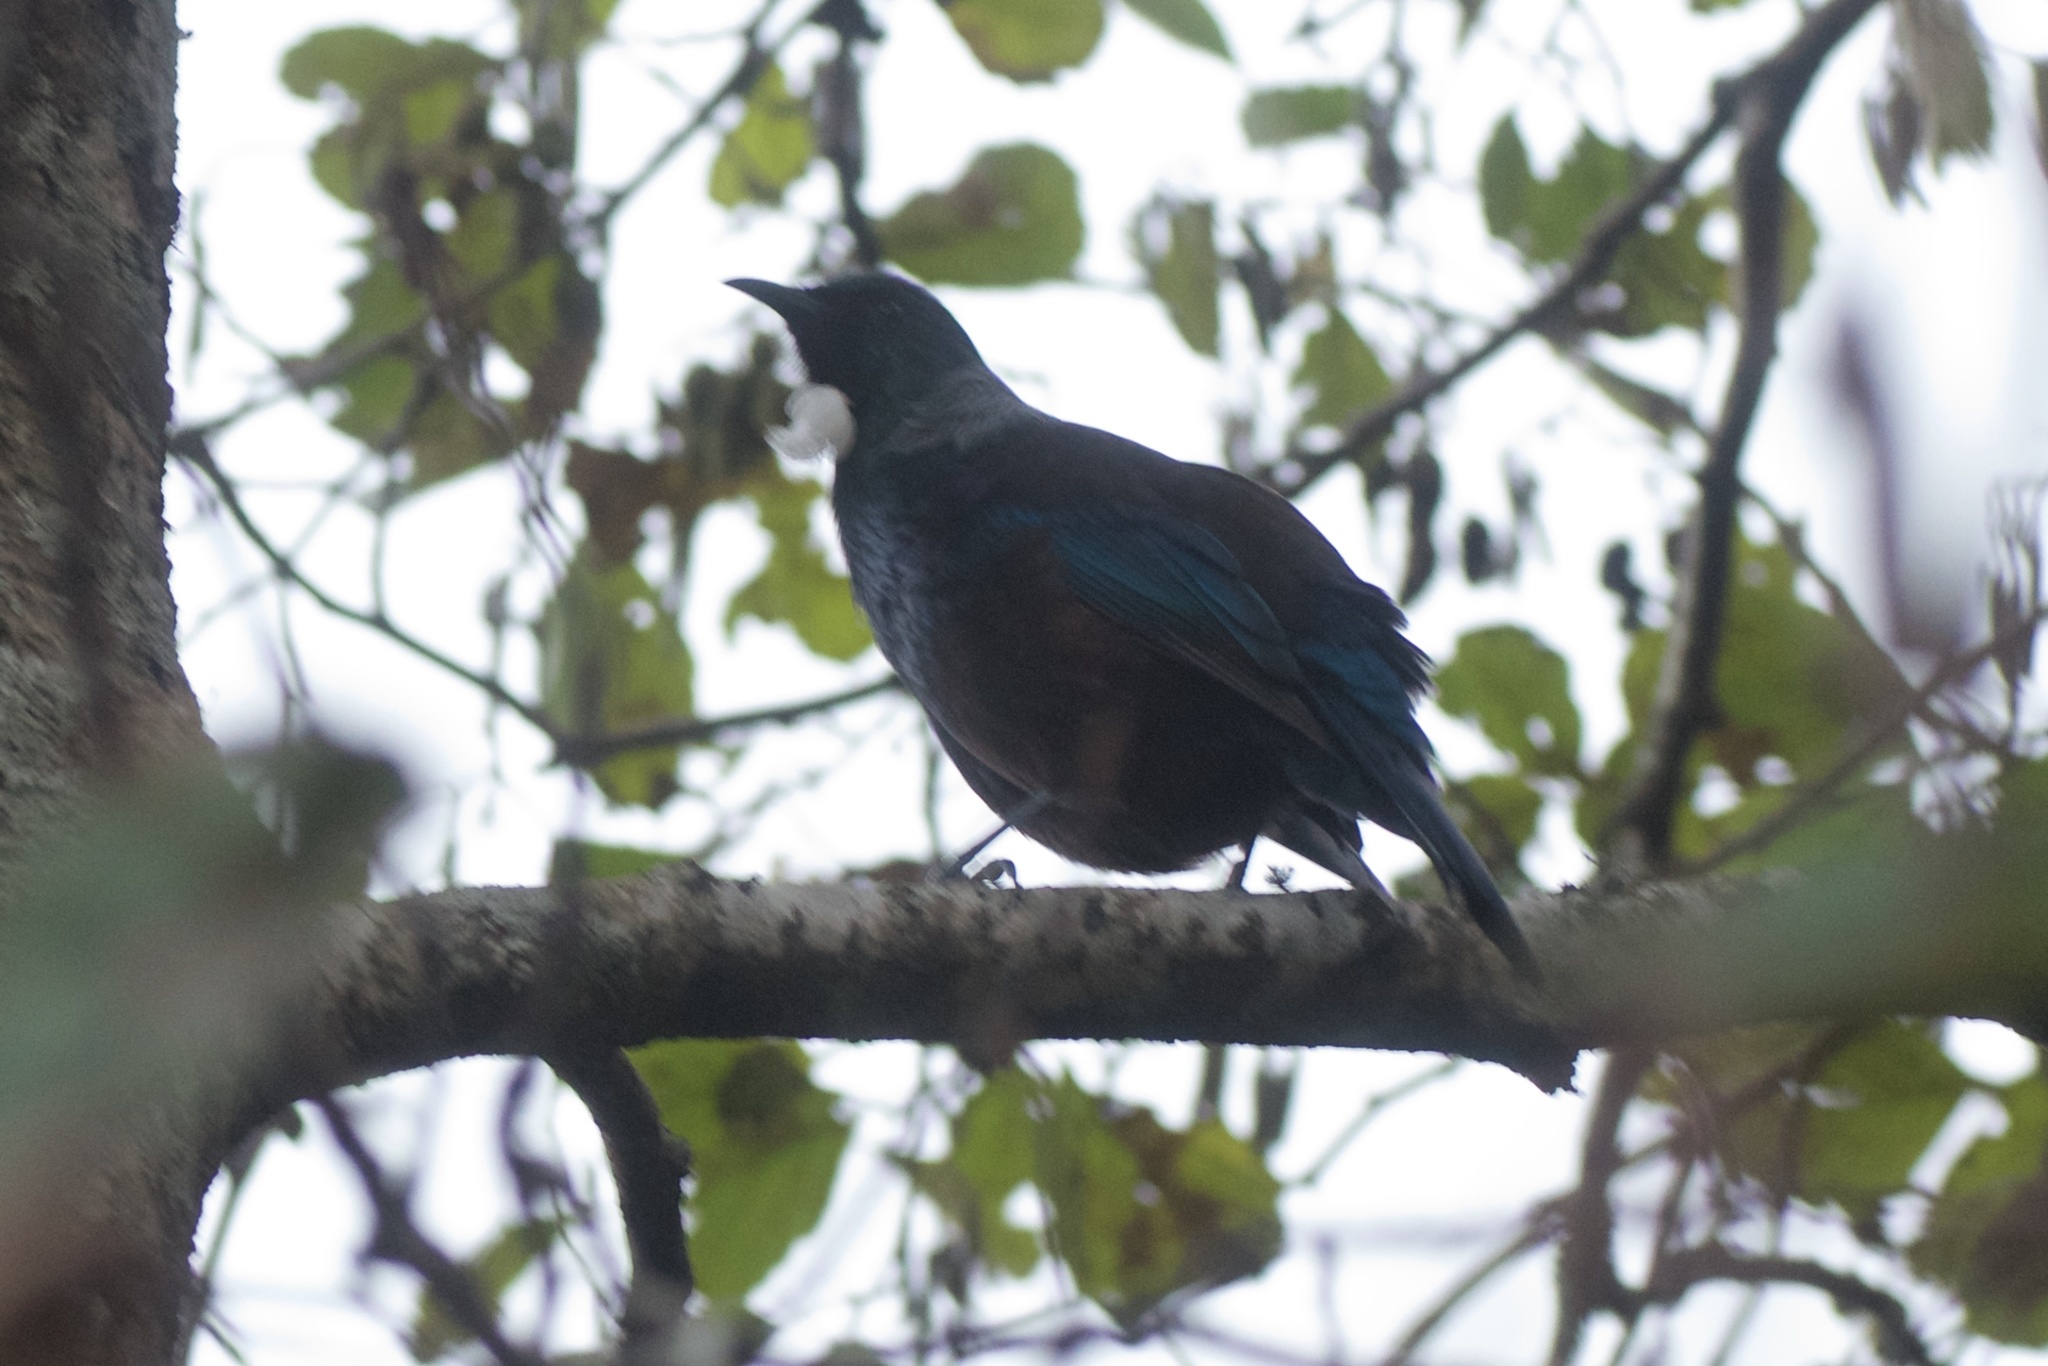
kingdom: Animalia
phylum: Chordata
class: Aves
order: Passeriformes
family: Meliphagidae
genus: Prosthemadera
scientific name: Prosthemadera novaeseelandiae
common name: Tui
